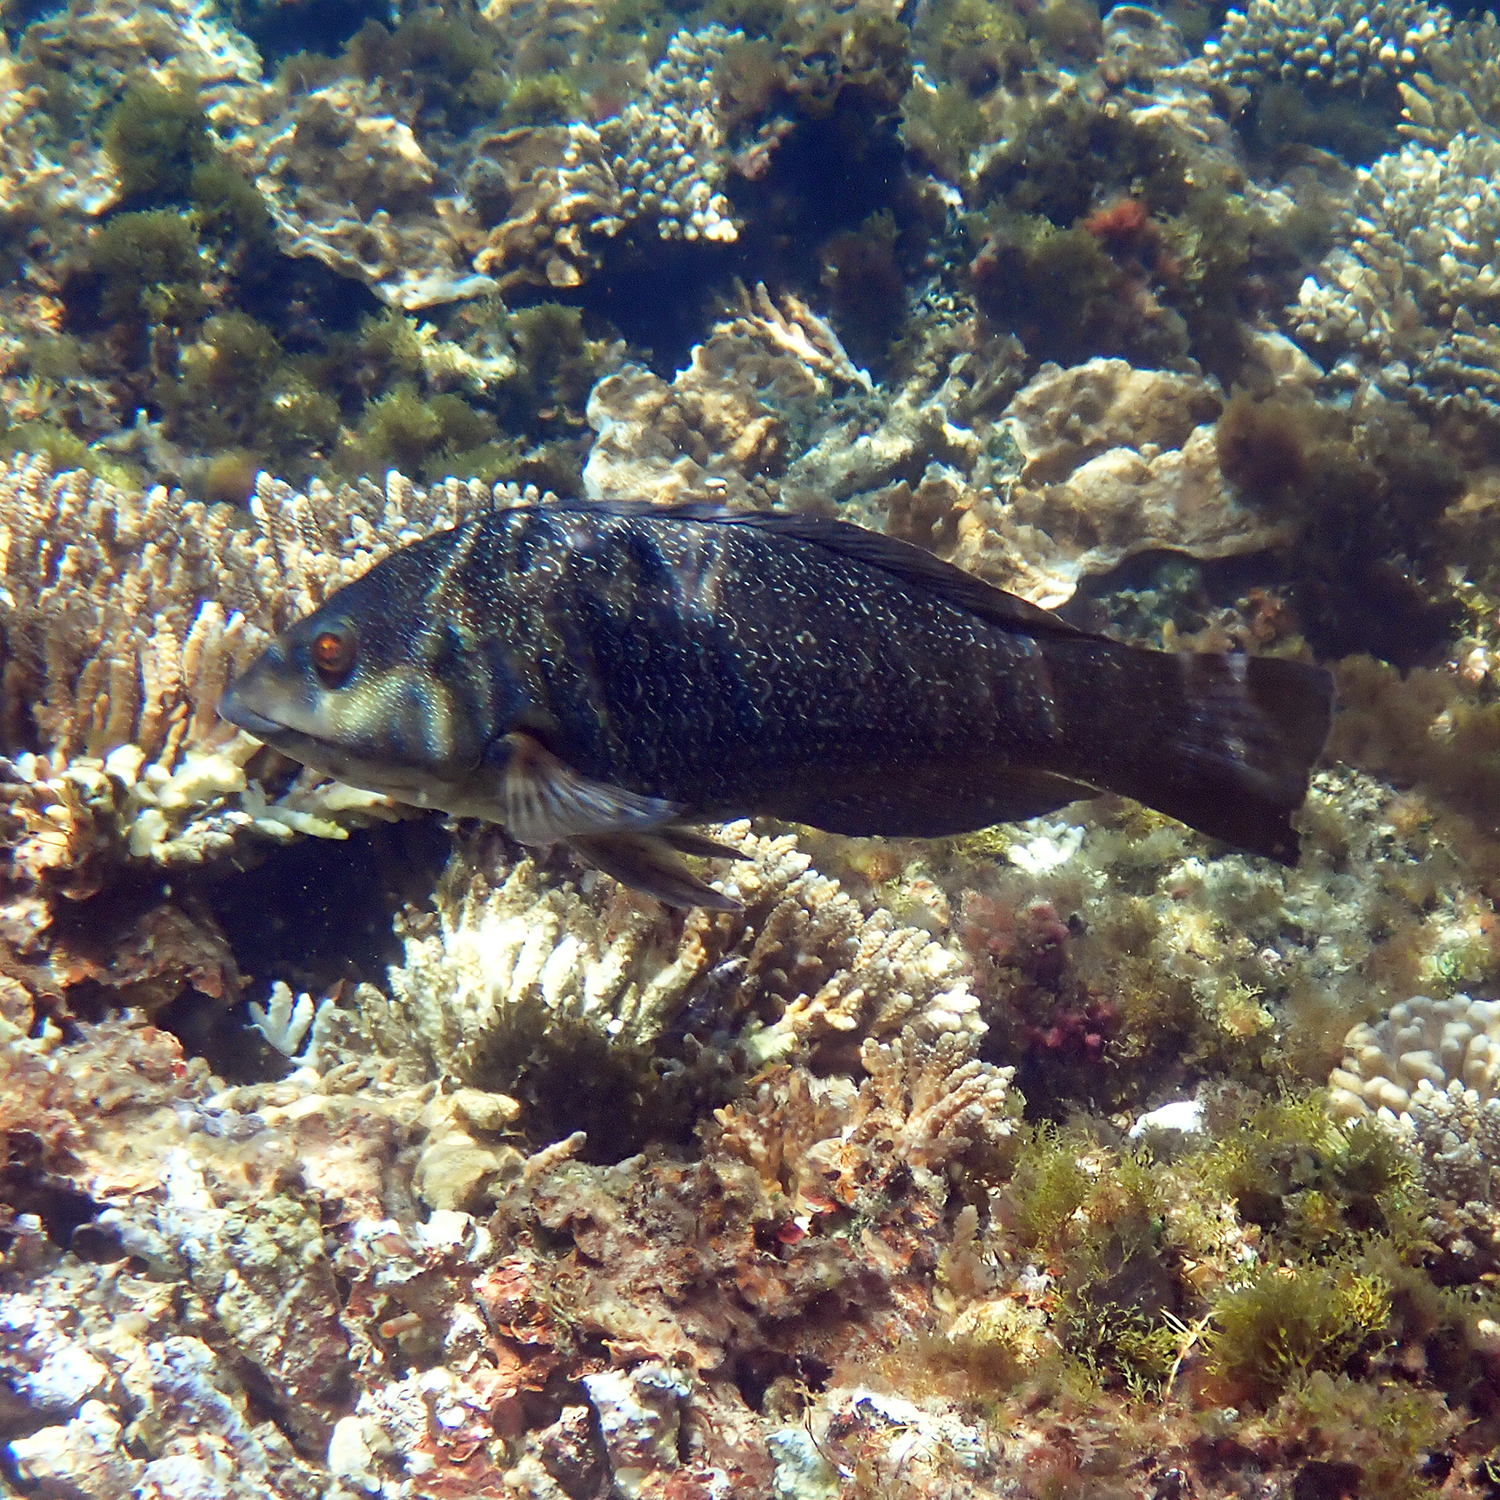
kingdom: Animalia
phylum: Chordata
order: Perciformes
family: Labridae
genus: Notolabrus
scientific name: Notolabrus inscriptus
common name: Green wrasse
